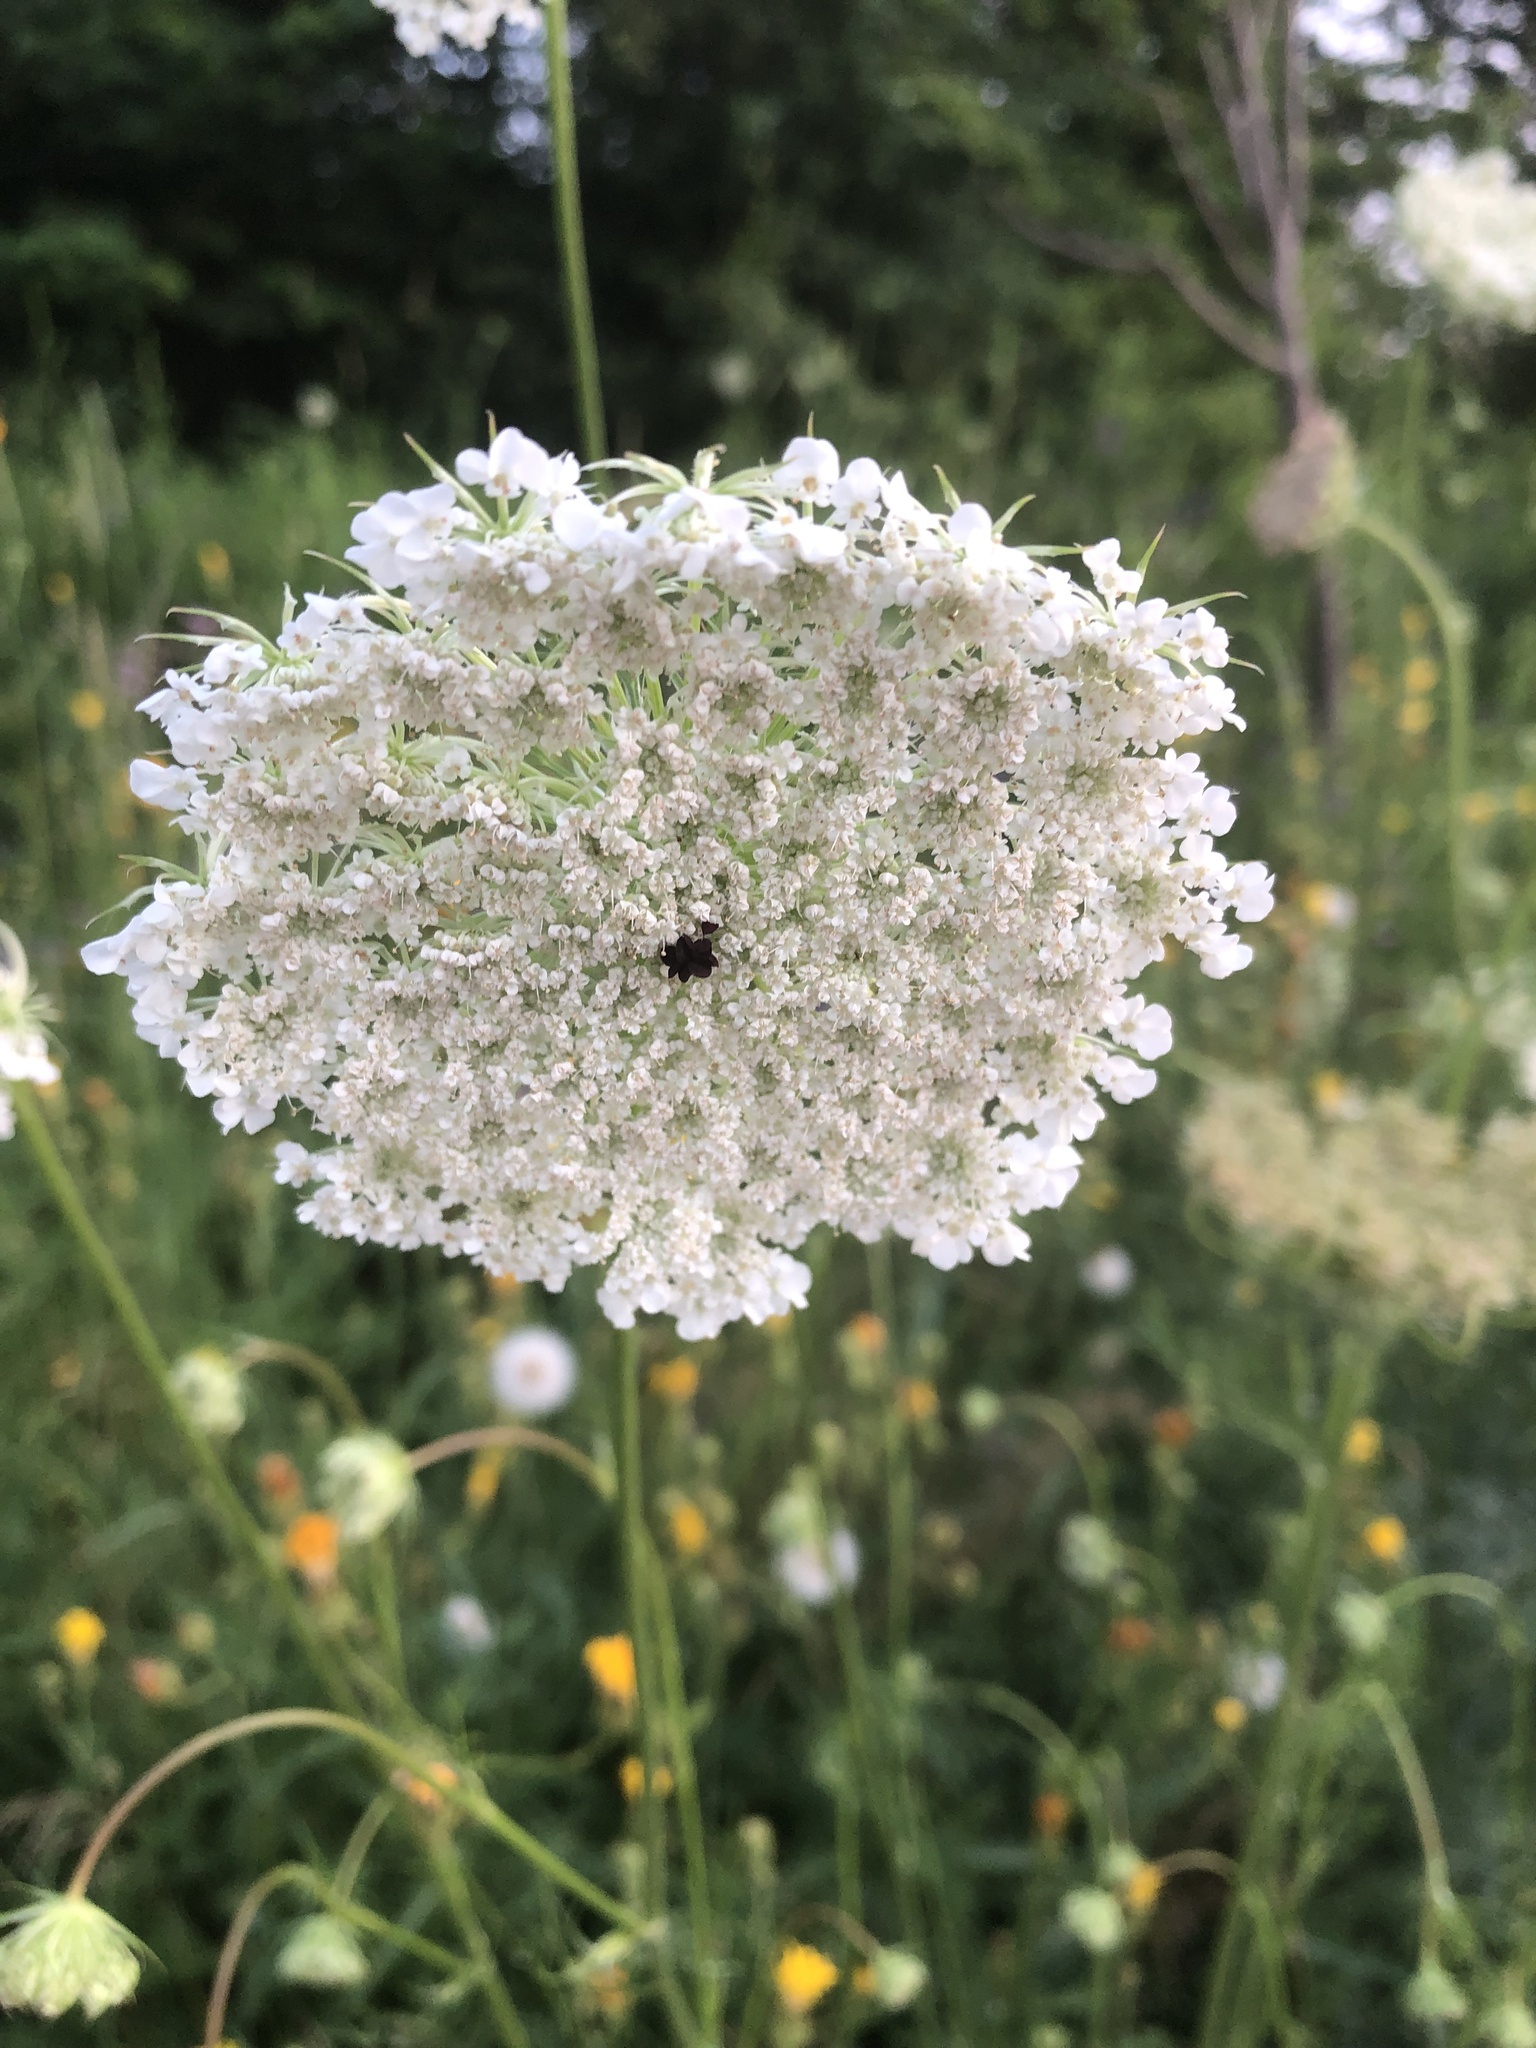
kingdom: Plantae
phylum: Tracheophyta
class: Magnoliopsida
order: Apiales
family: Apiaceae
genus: Daucus
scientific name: Daucus carota
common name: Wild carrot
